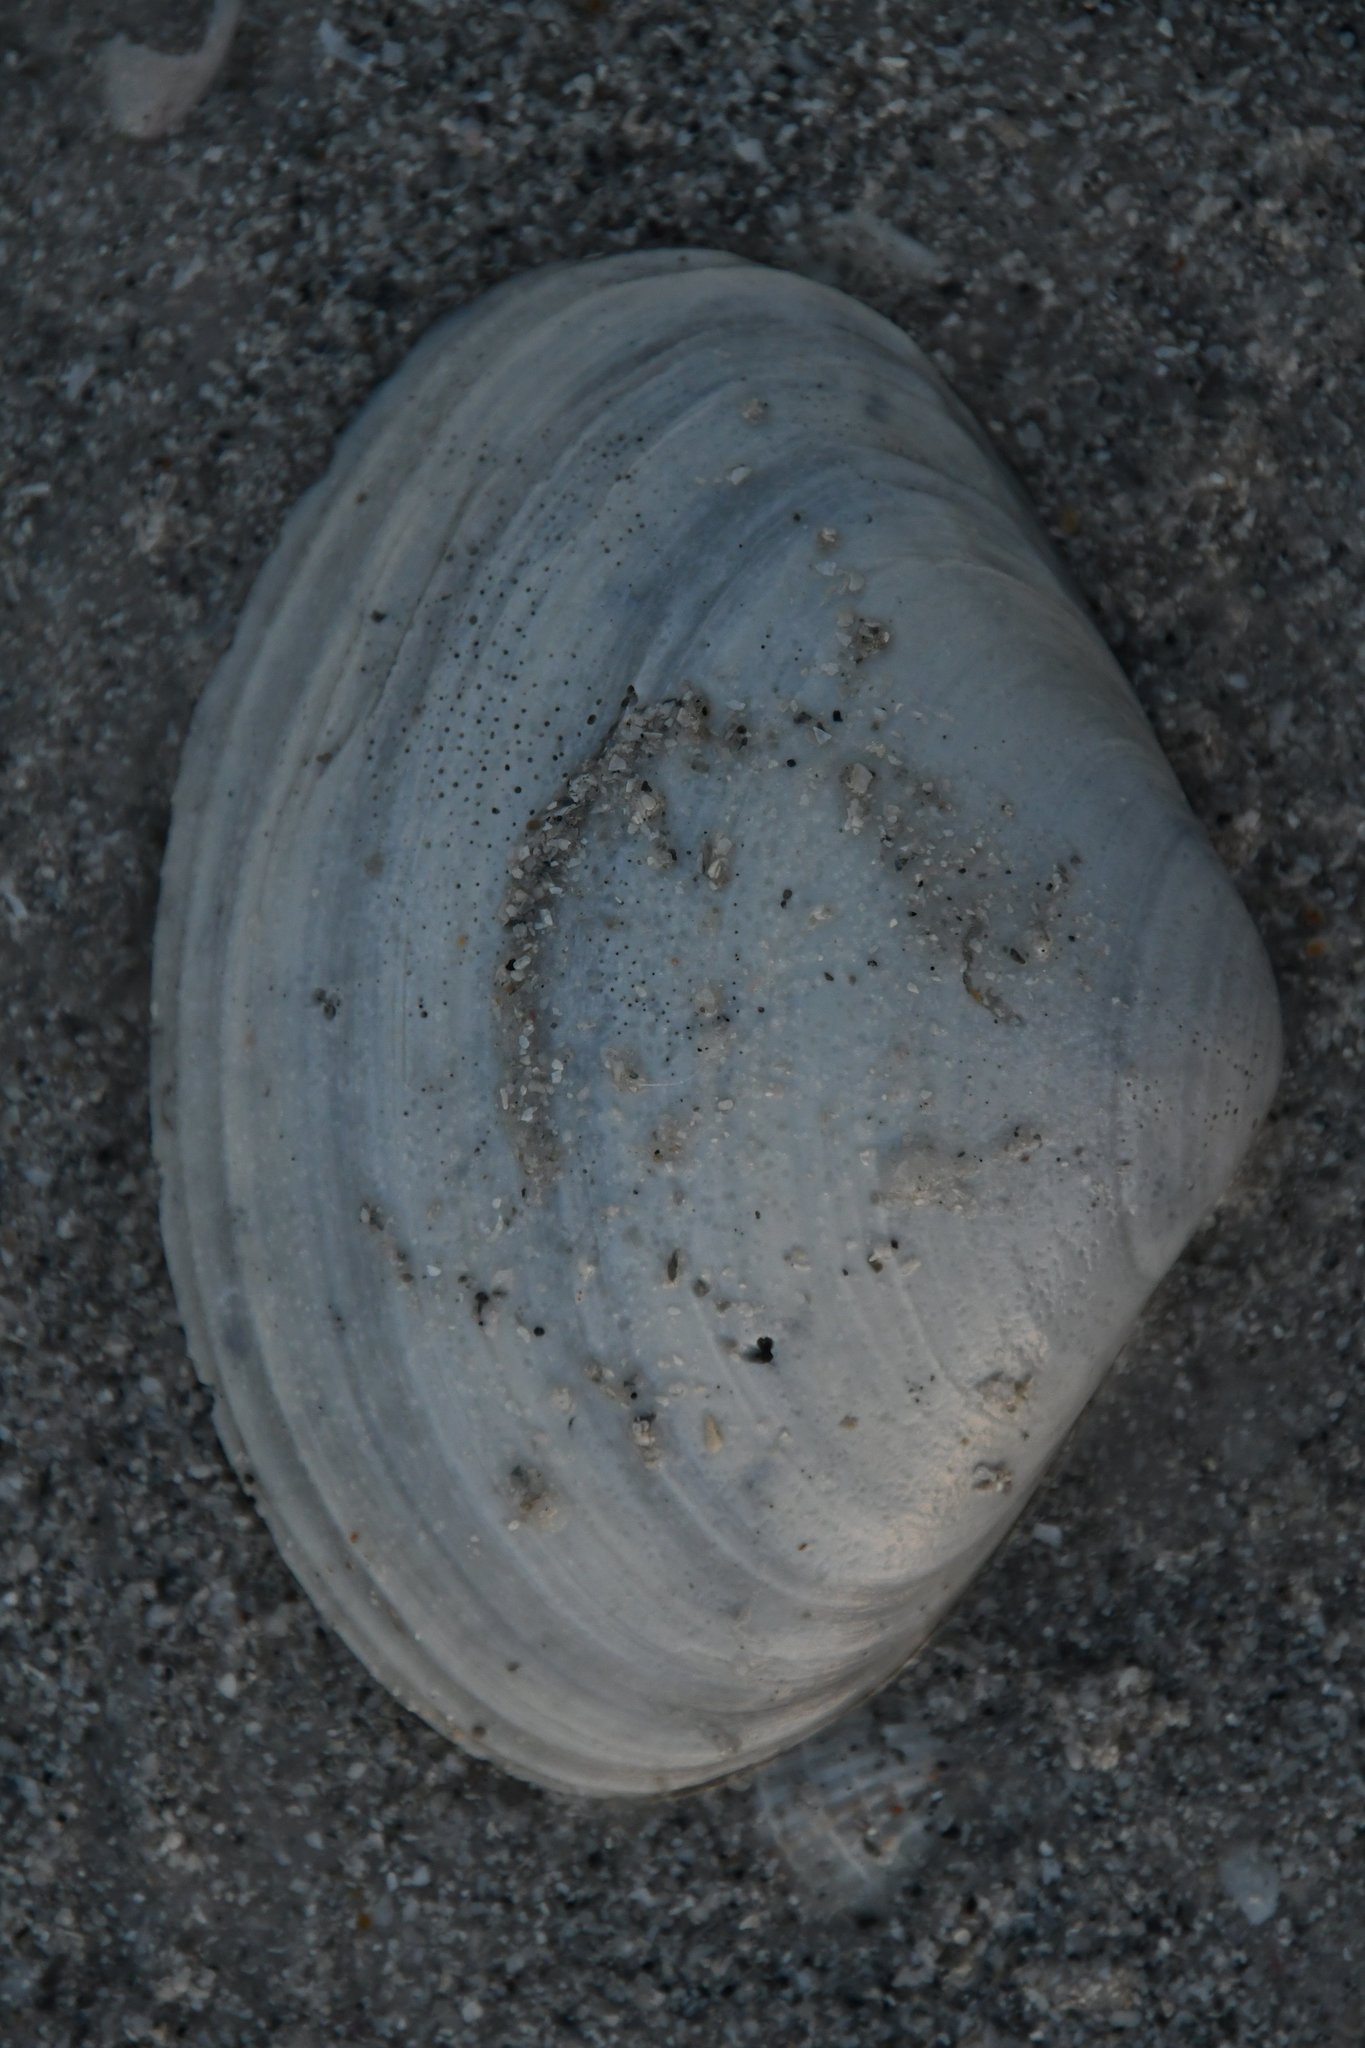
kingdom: Animalia
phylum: Mollusca
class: Bivalvia
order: Venerida
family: Mactridae
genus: Spisula
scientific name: Spisula raveneli
